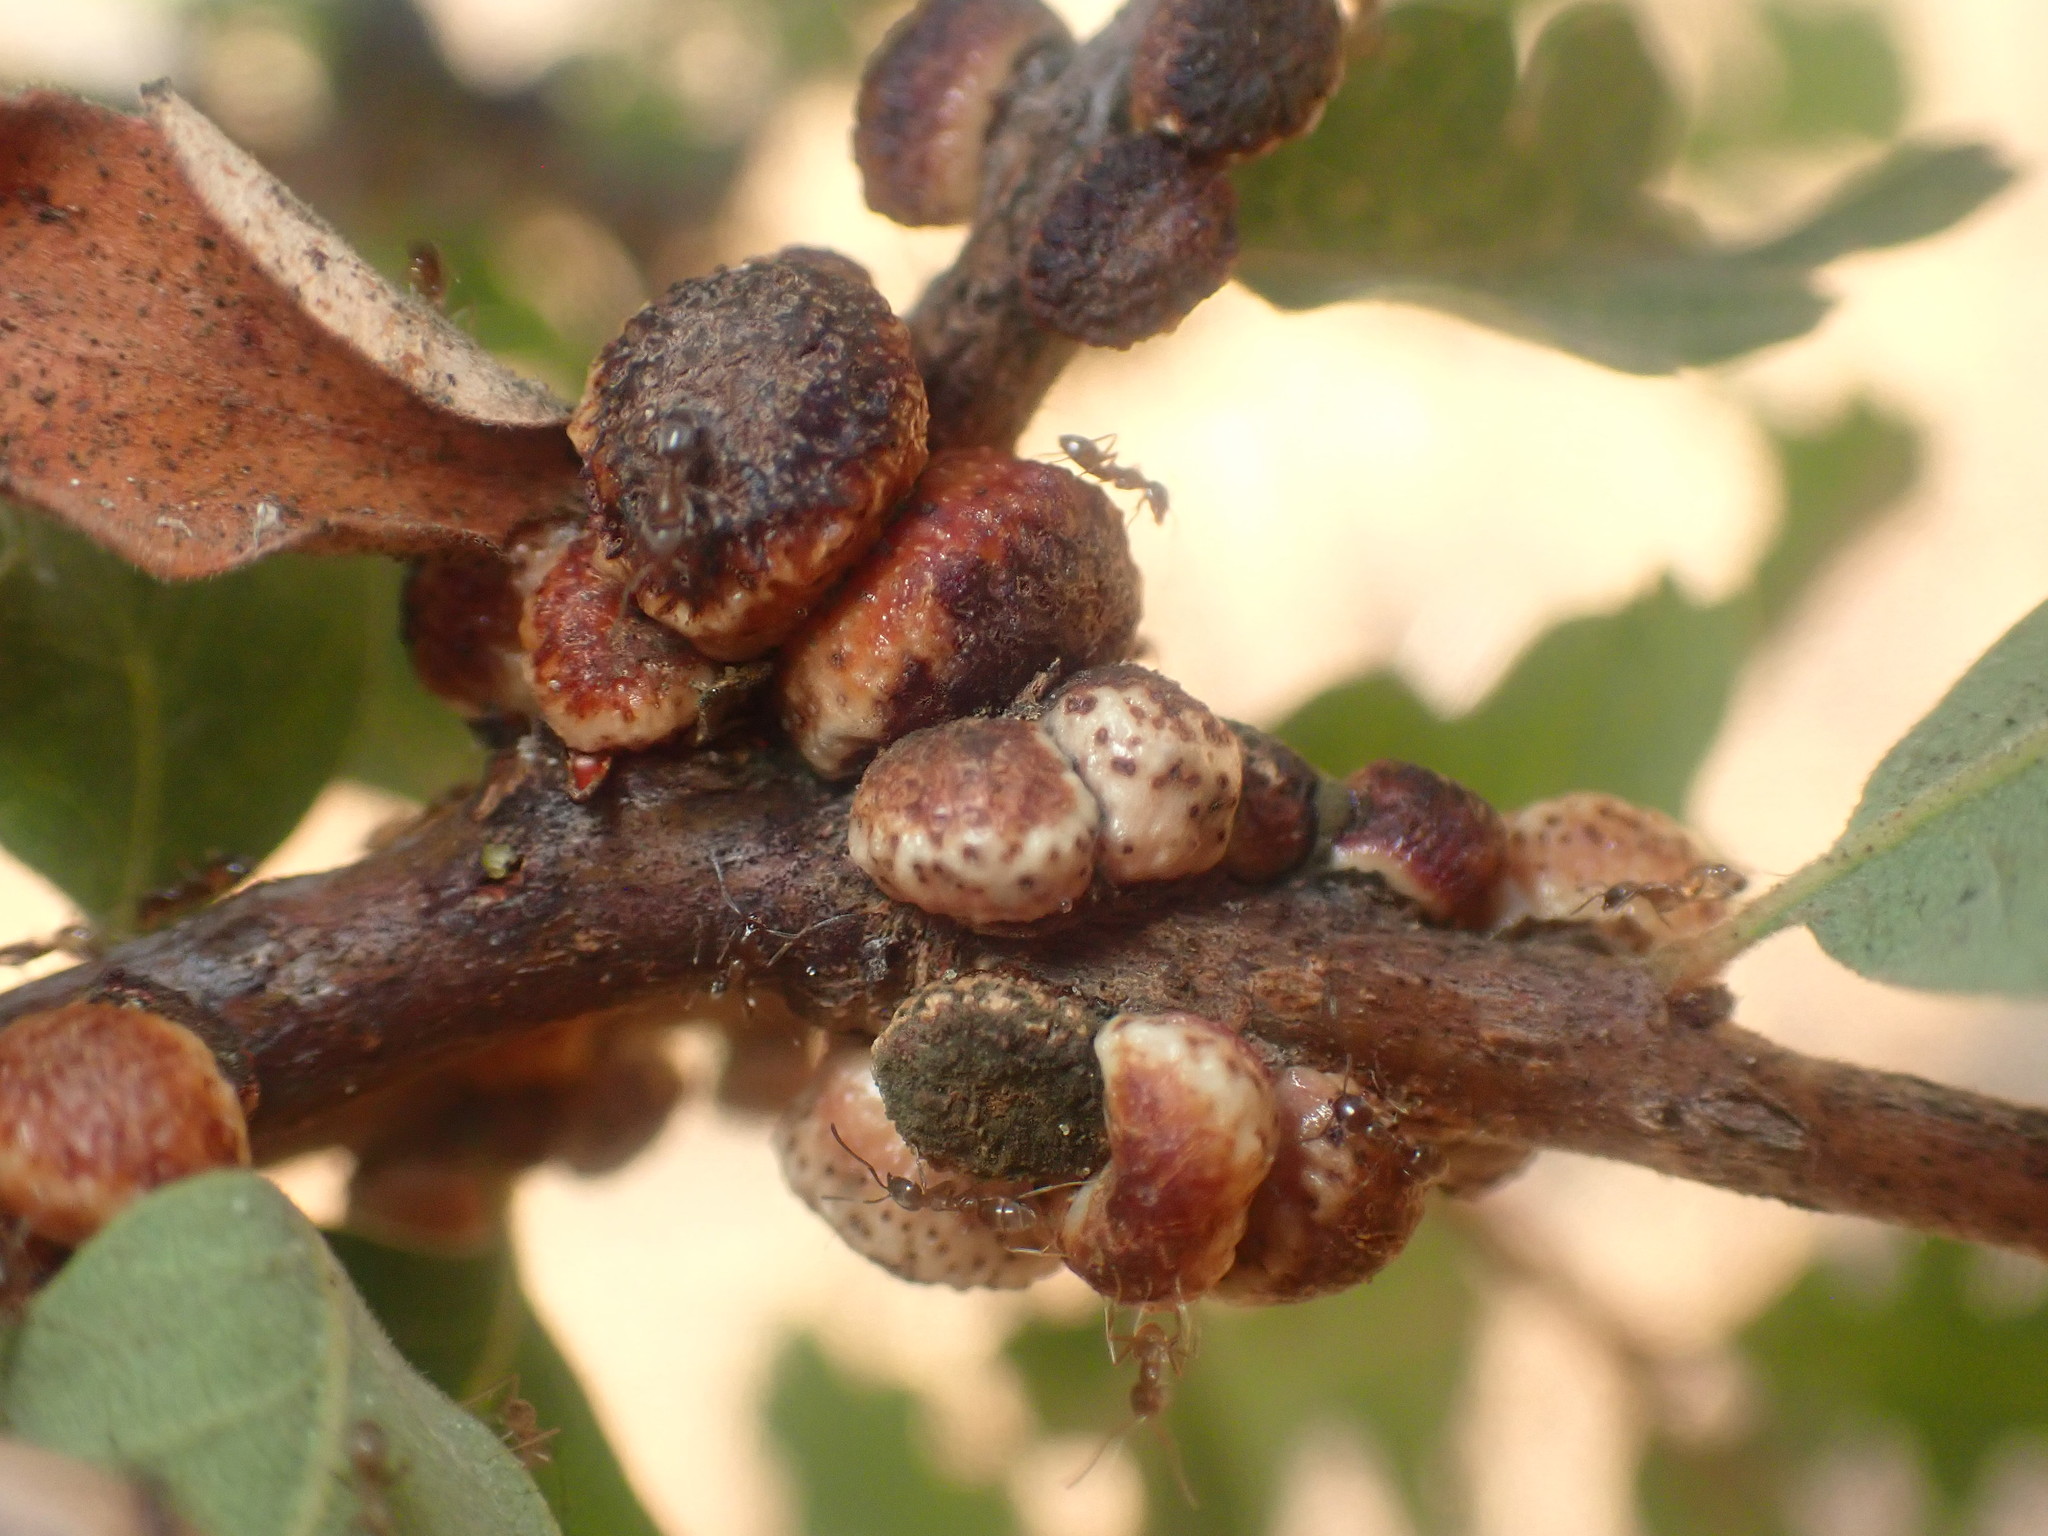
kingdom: Animalia
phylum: Arthropoda
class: Insecta
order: Hymenoptera
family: Cynipidae
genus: Disholcaspis
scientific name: Disholcaspis
